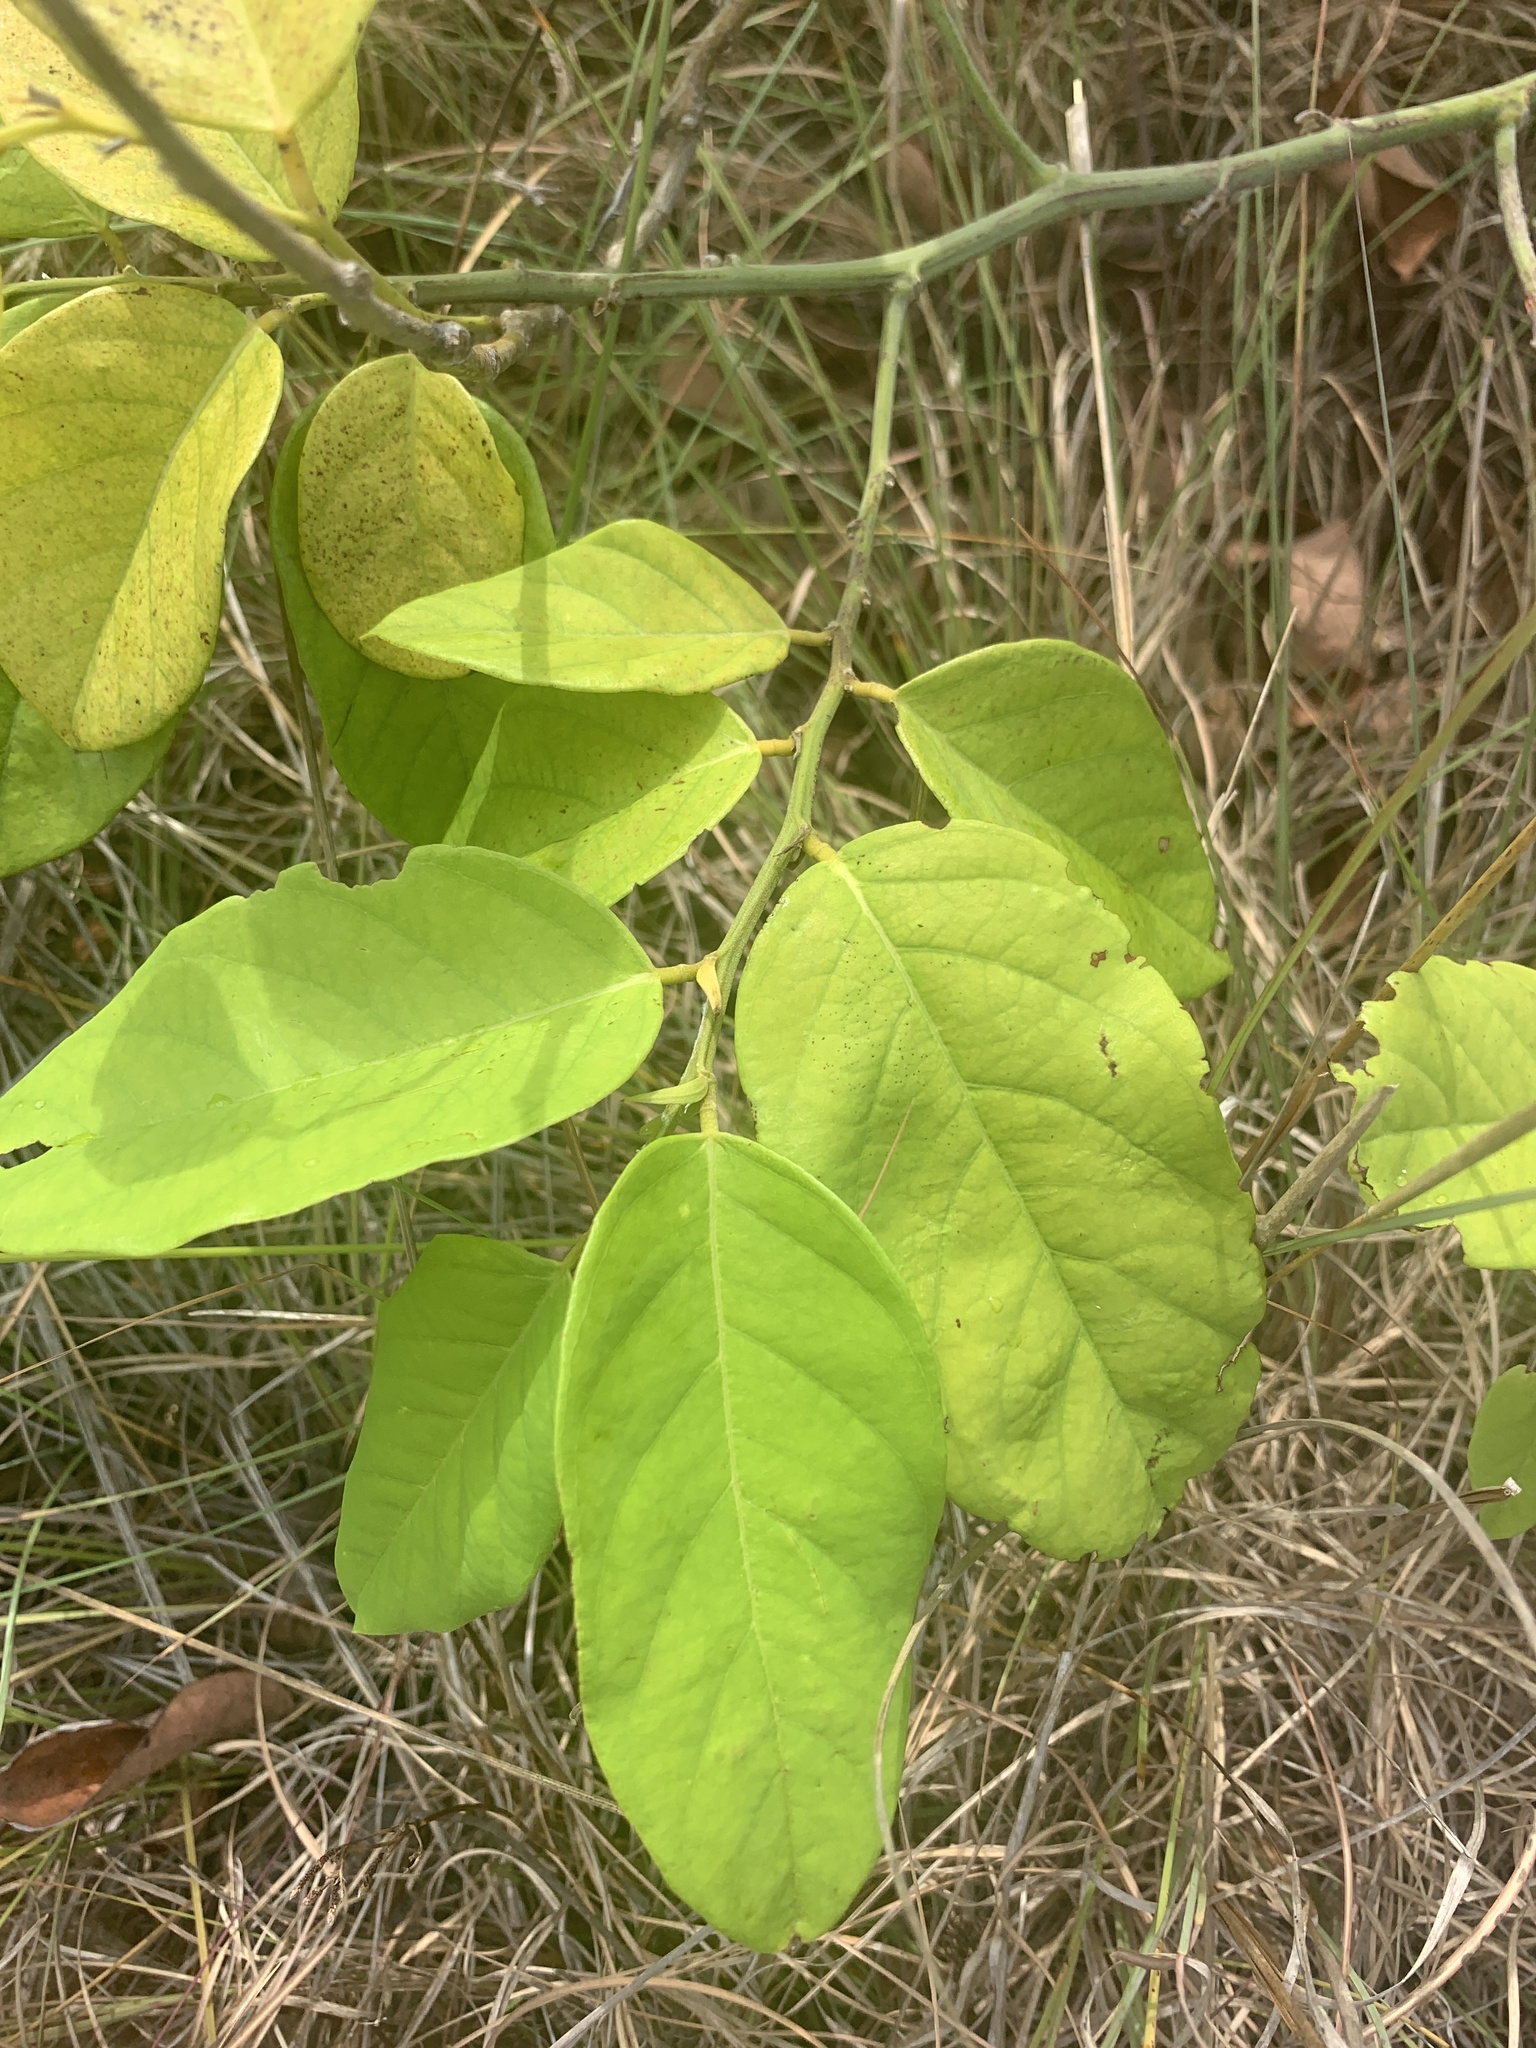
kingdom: Plantae
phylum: Tracheophyta
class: Magnoliopsida
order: Fabales
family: Fabaceae
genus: Dalbergia
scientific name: Dalbergia ecastaphyllum
